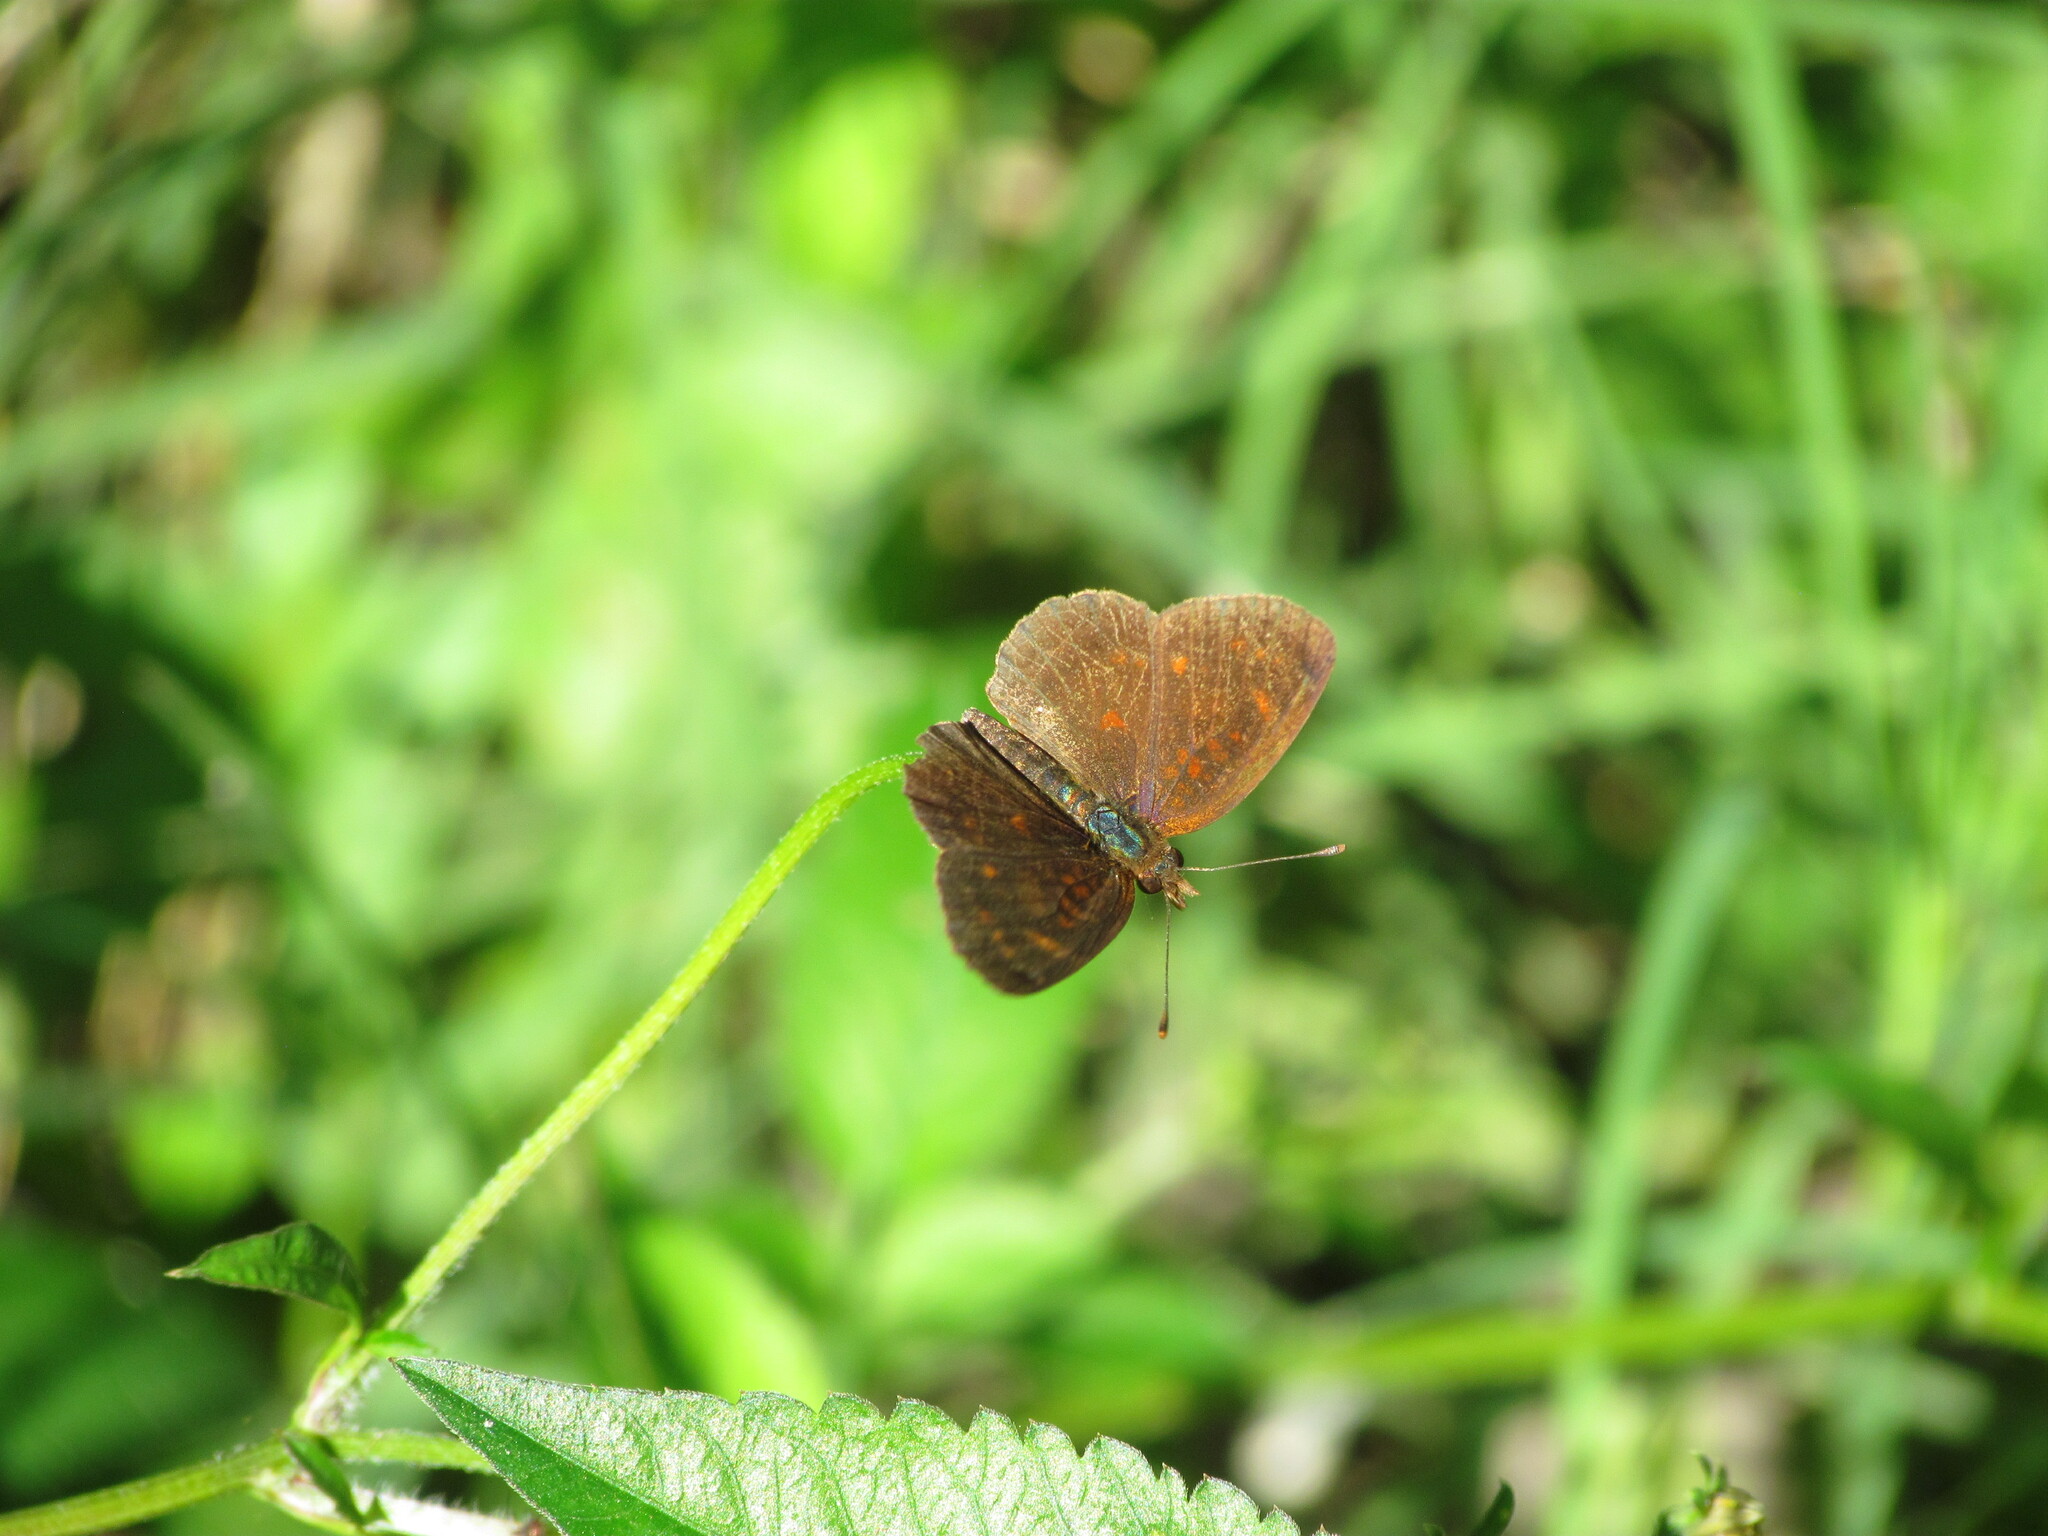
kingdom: Animalia
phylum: Arthropoda
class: Insecta
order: Lepidoptera
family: Nymphalidae
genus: Ortilia
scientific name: Ortilia velica
